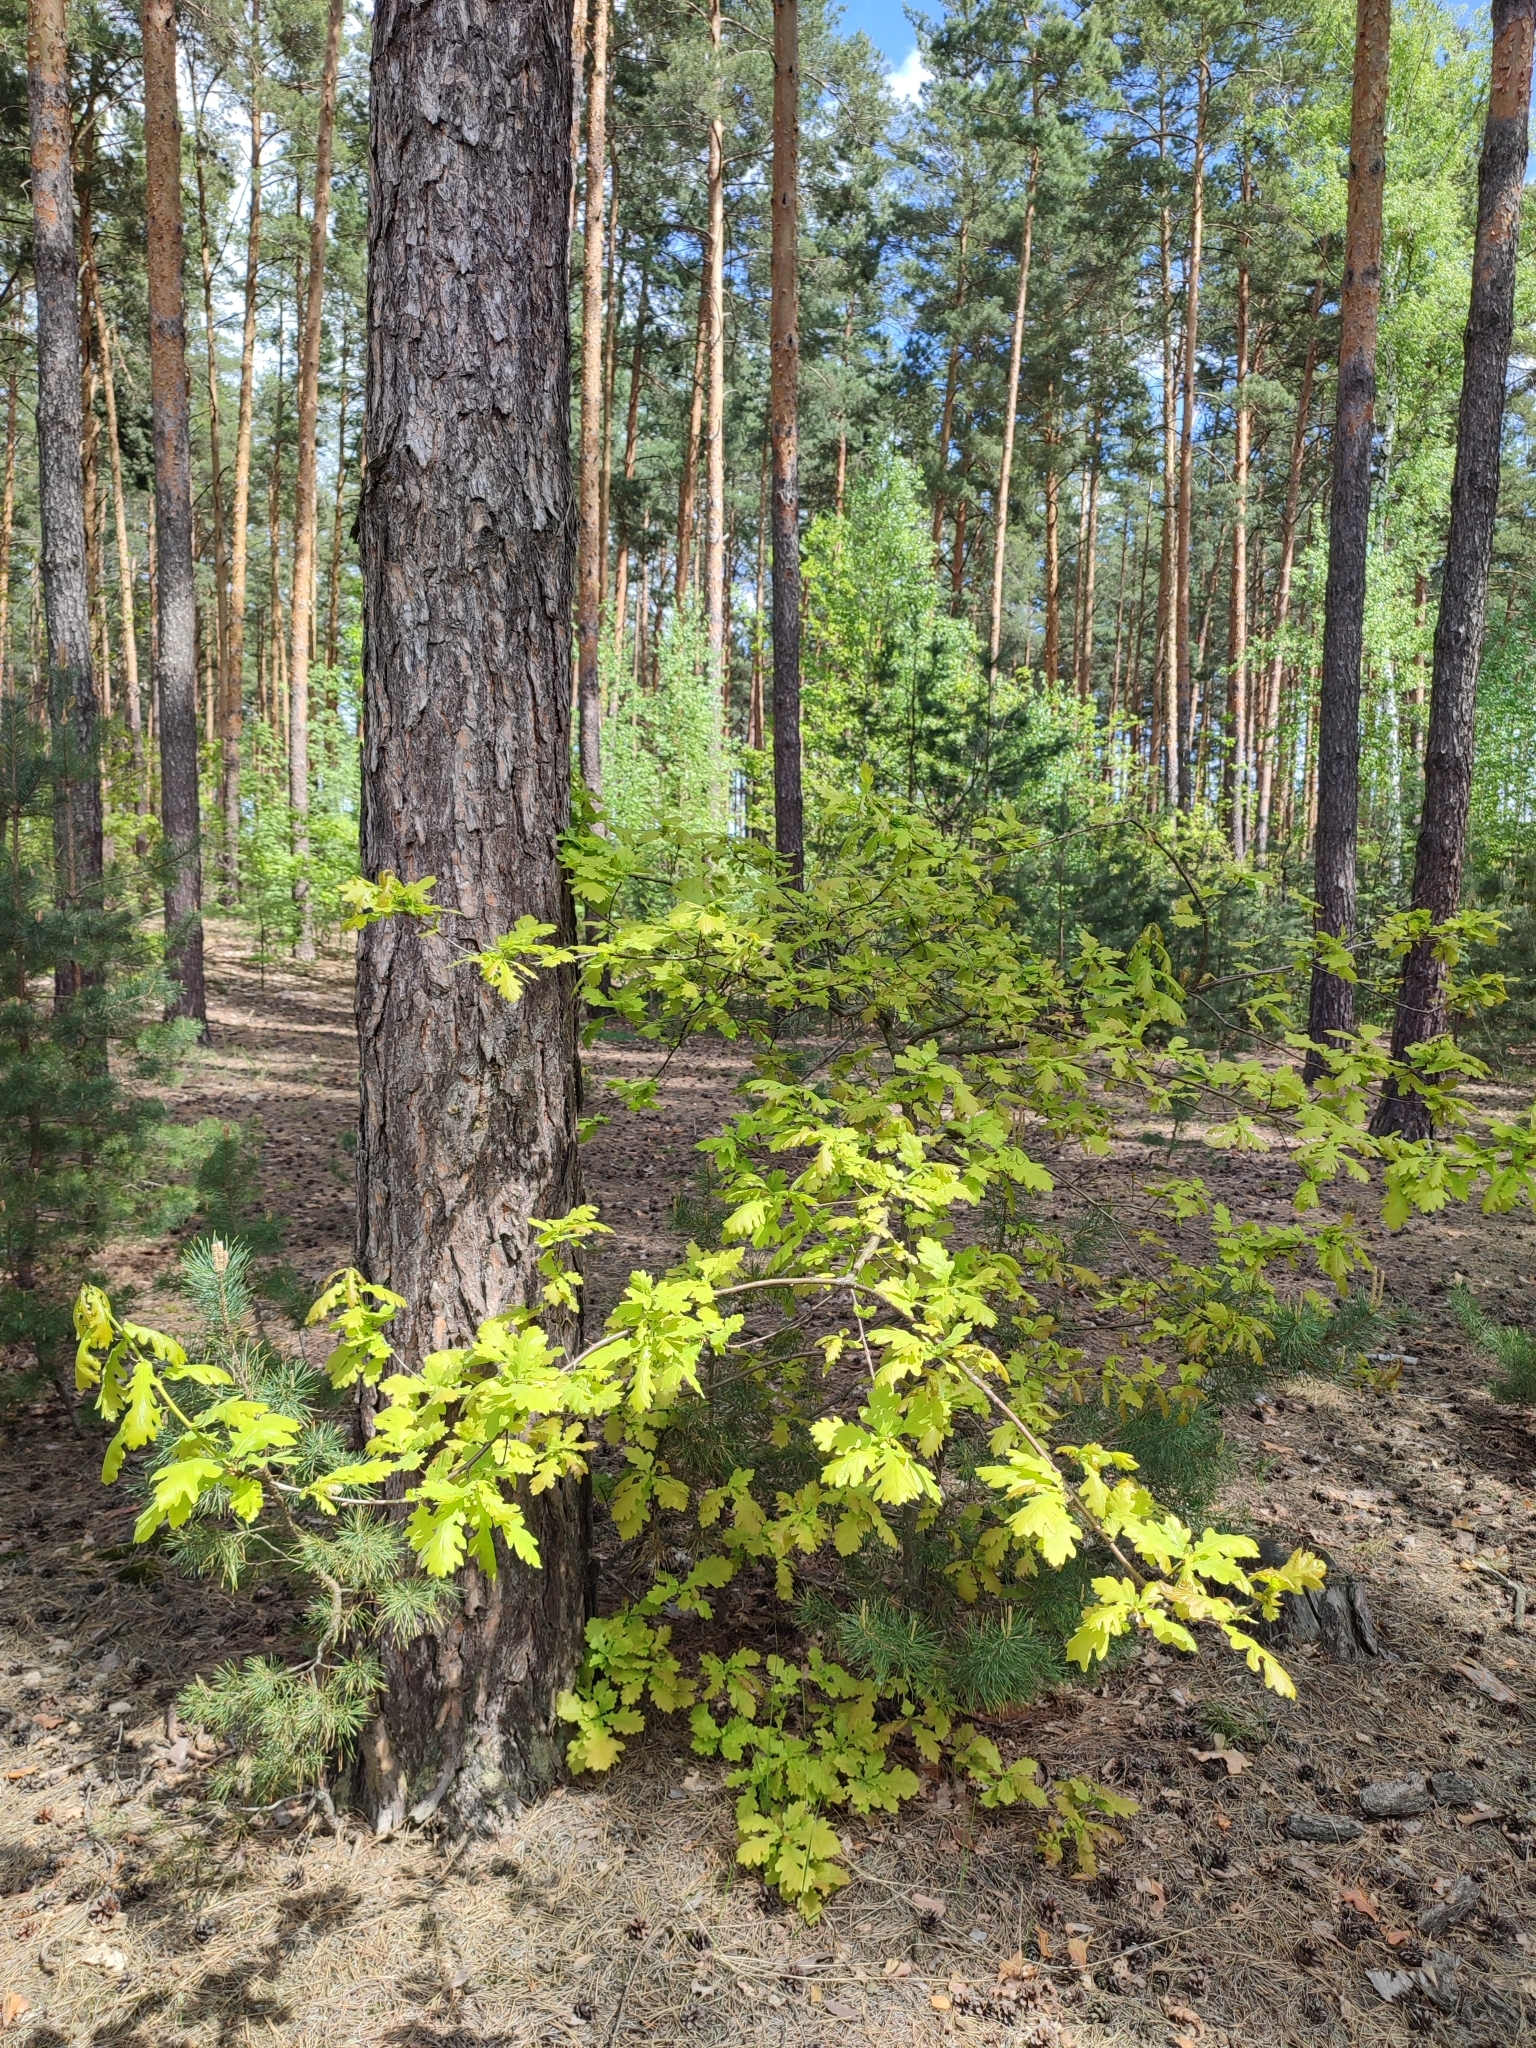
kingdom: Plantae
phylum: Tracheophyta
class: Magnoliopsida
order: Fagales
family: Fagaceae
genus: Quercus
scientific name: Quercus robur
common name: Pedunculate oak
